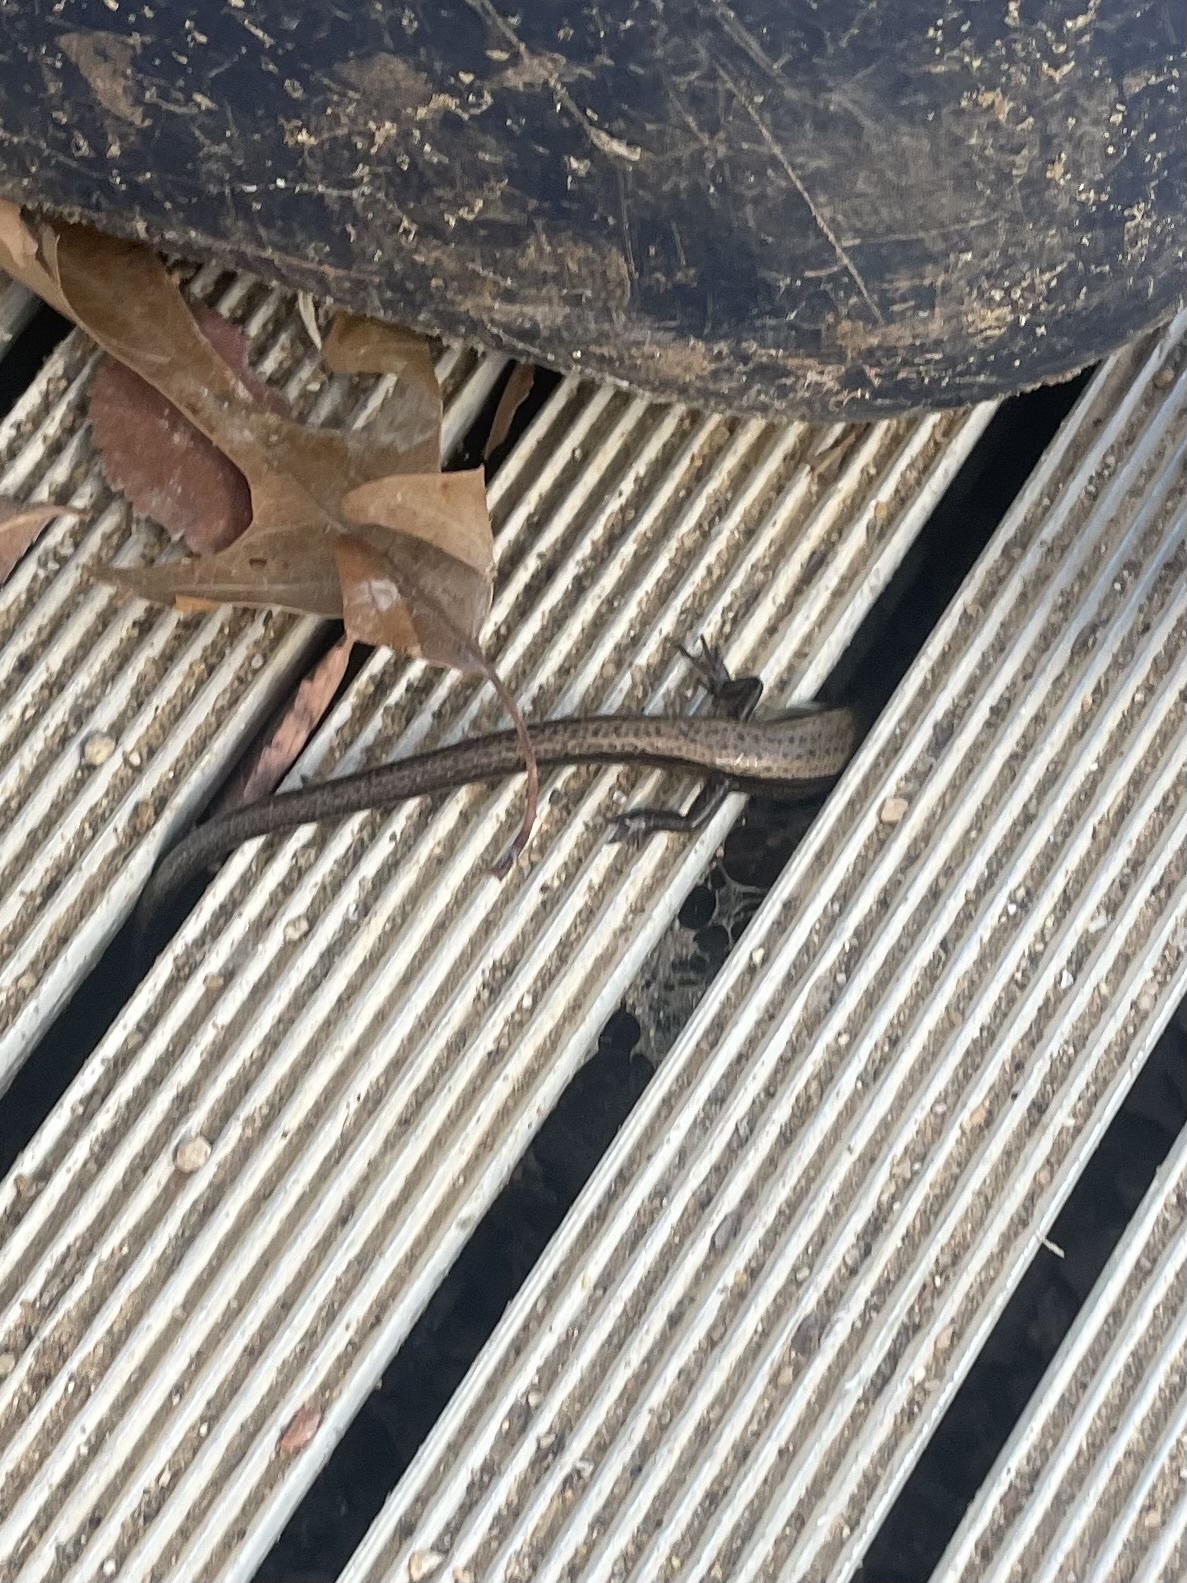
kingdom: Animalia
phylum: Chordata
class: Squamata
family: Scincidae
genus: Scincella
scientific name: Scincella lateralis
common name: Ground skink
